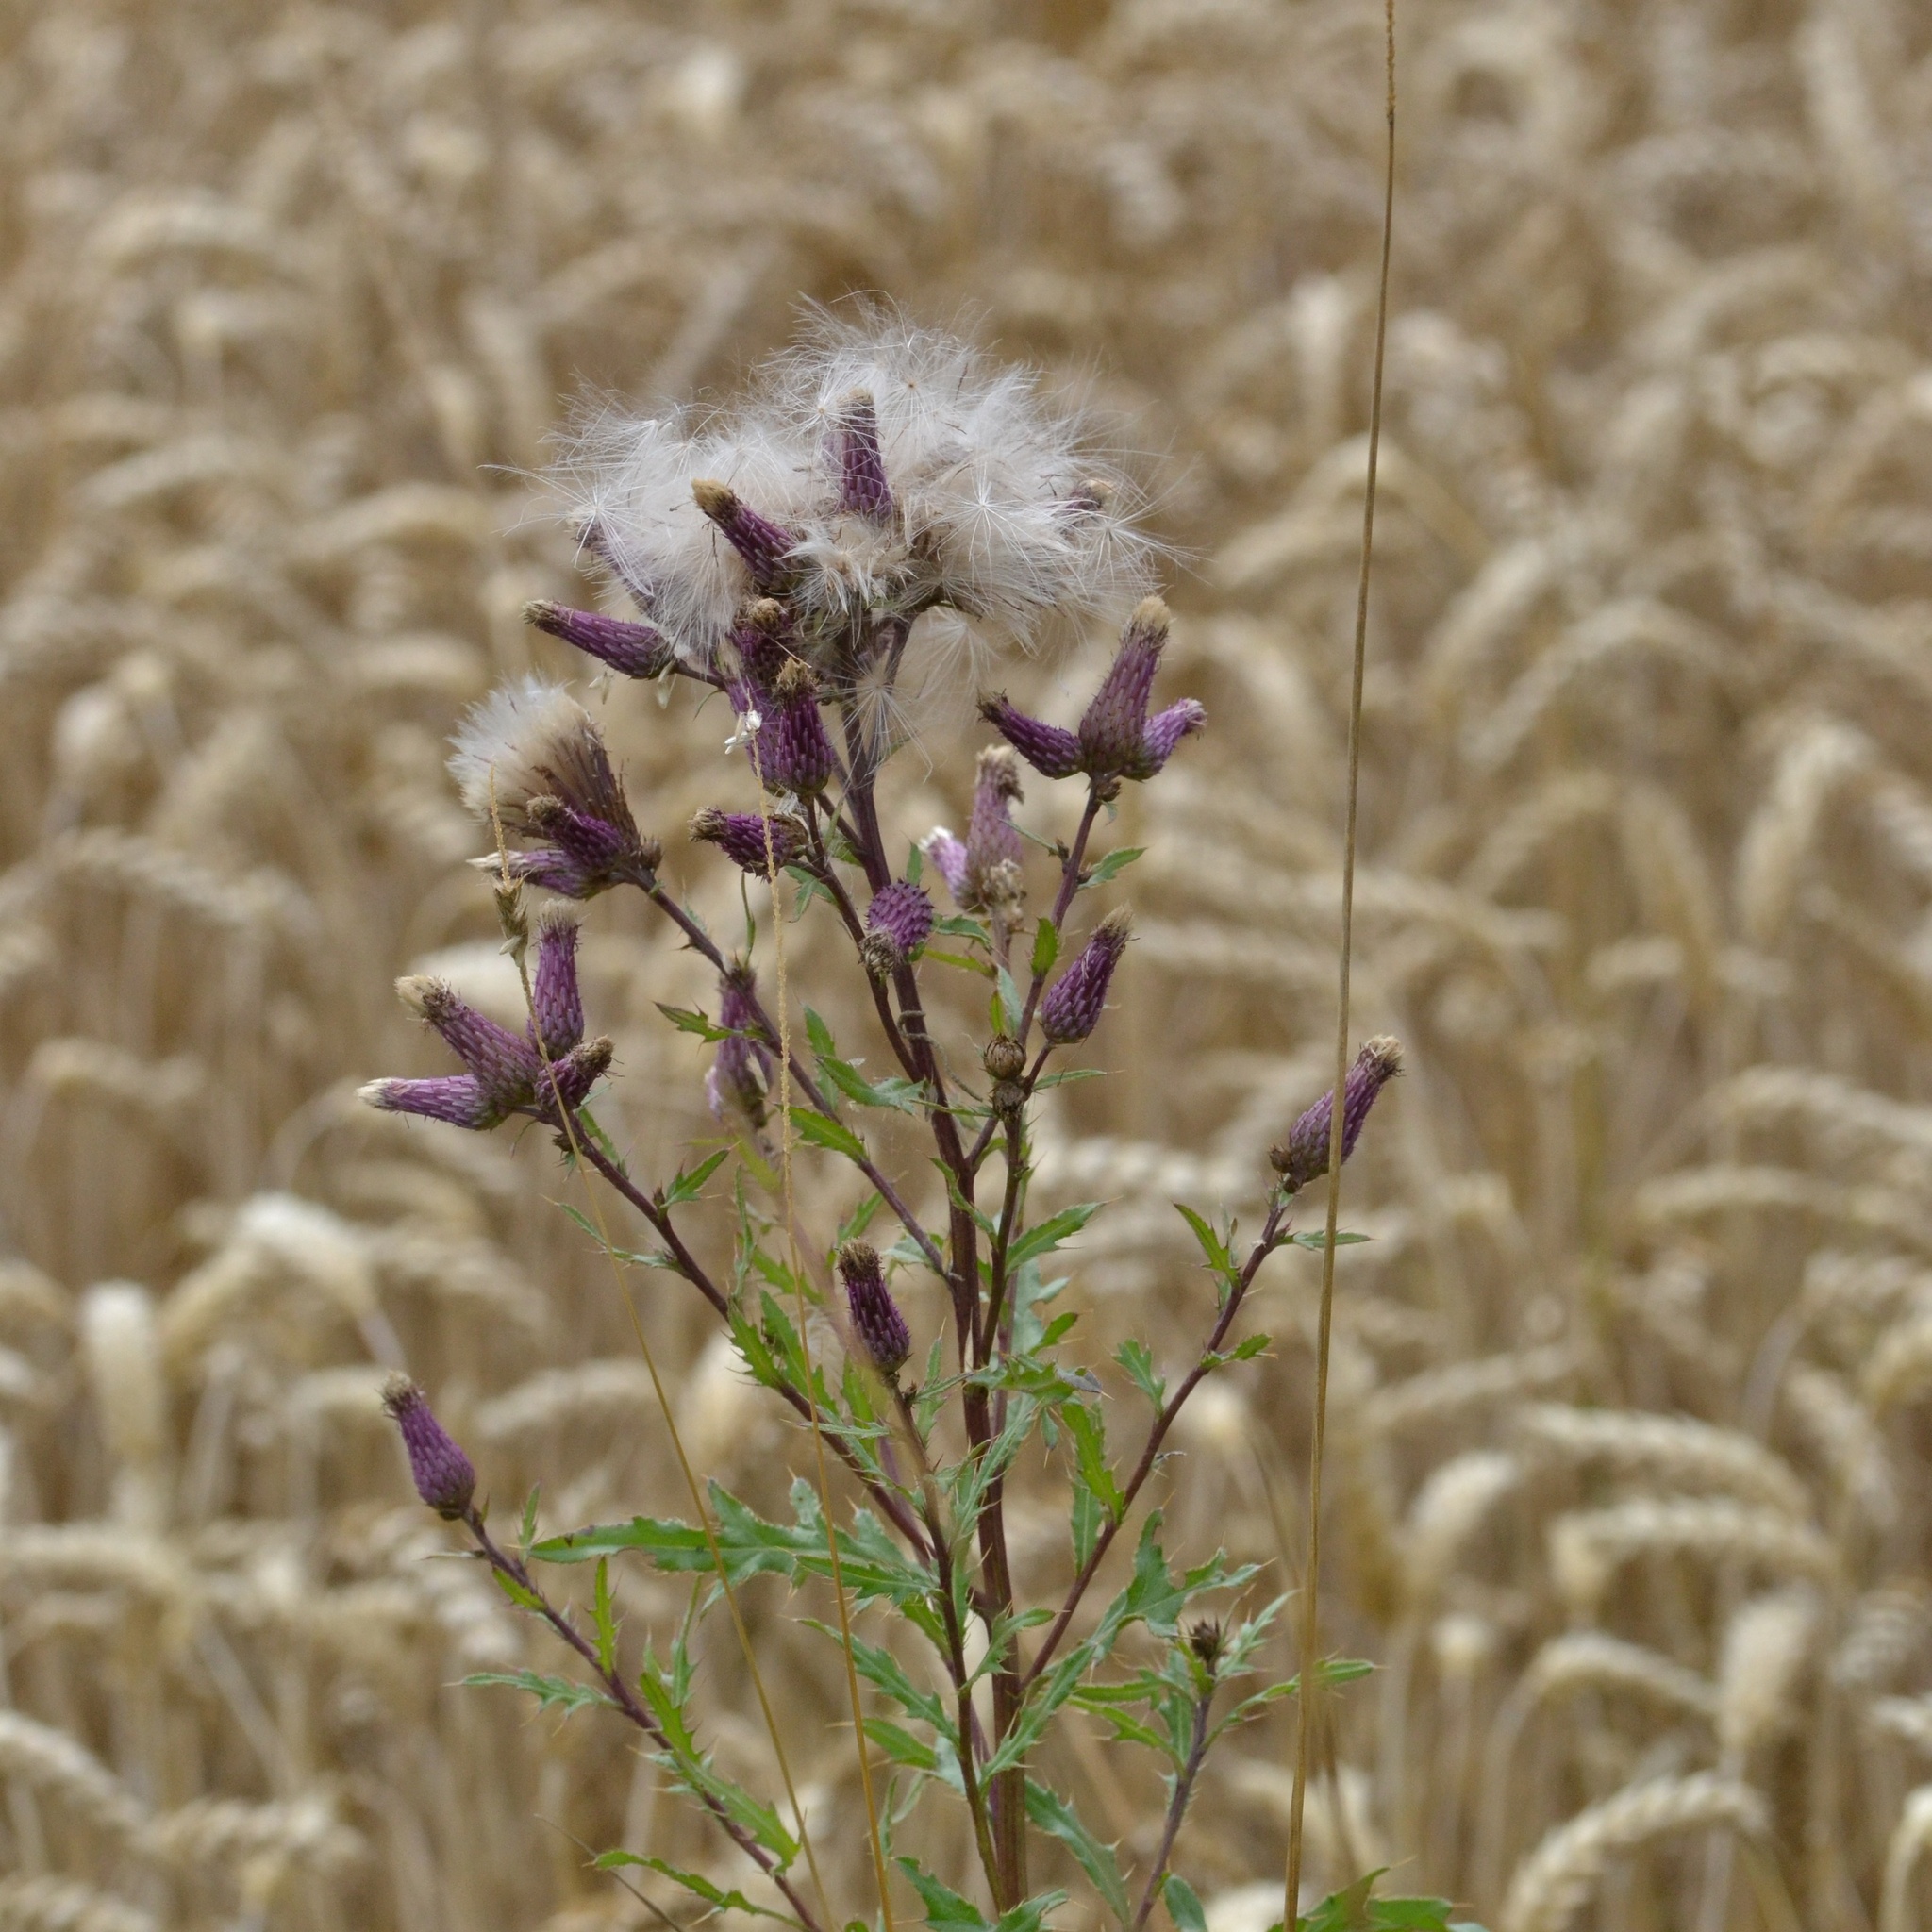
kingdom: Plantae
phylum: Tracheophyta
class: Magnoliopsida
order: Asterales
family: Asteraceae
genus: Cirsium
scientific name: Cirsium arvense
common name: Creeping thistle
